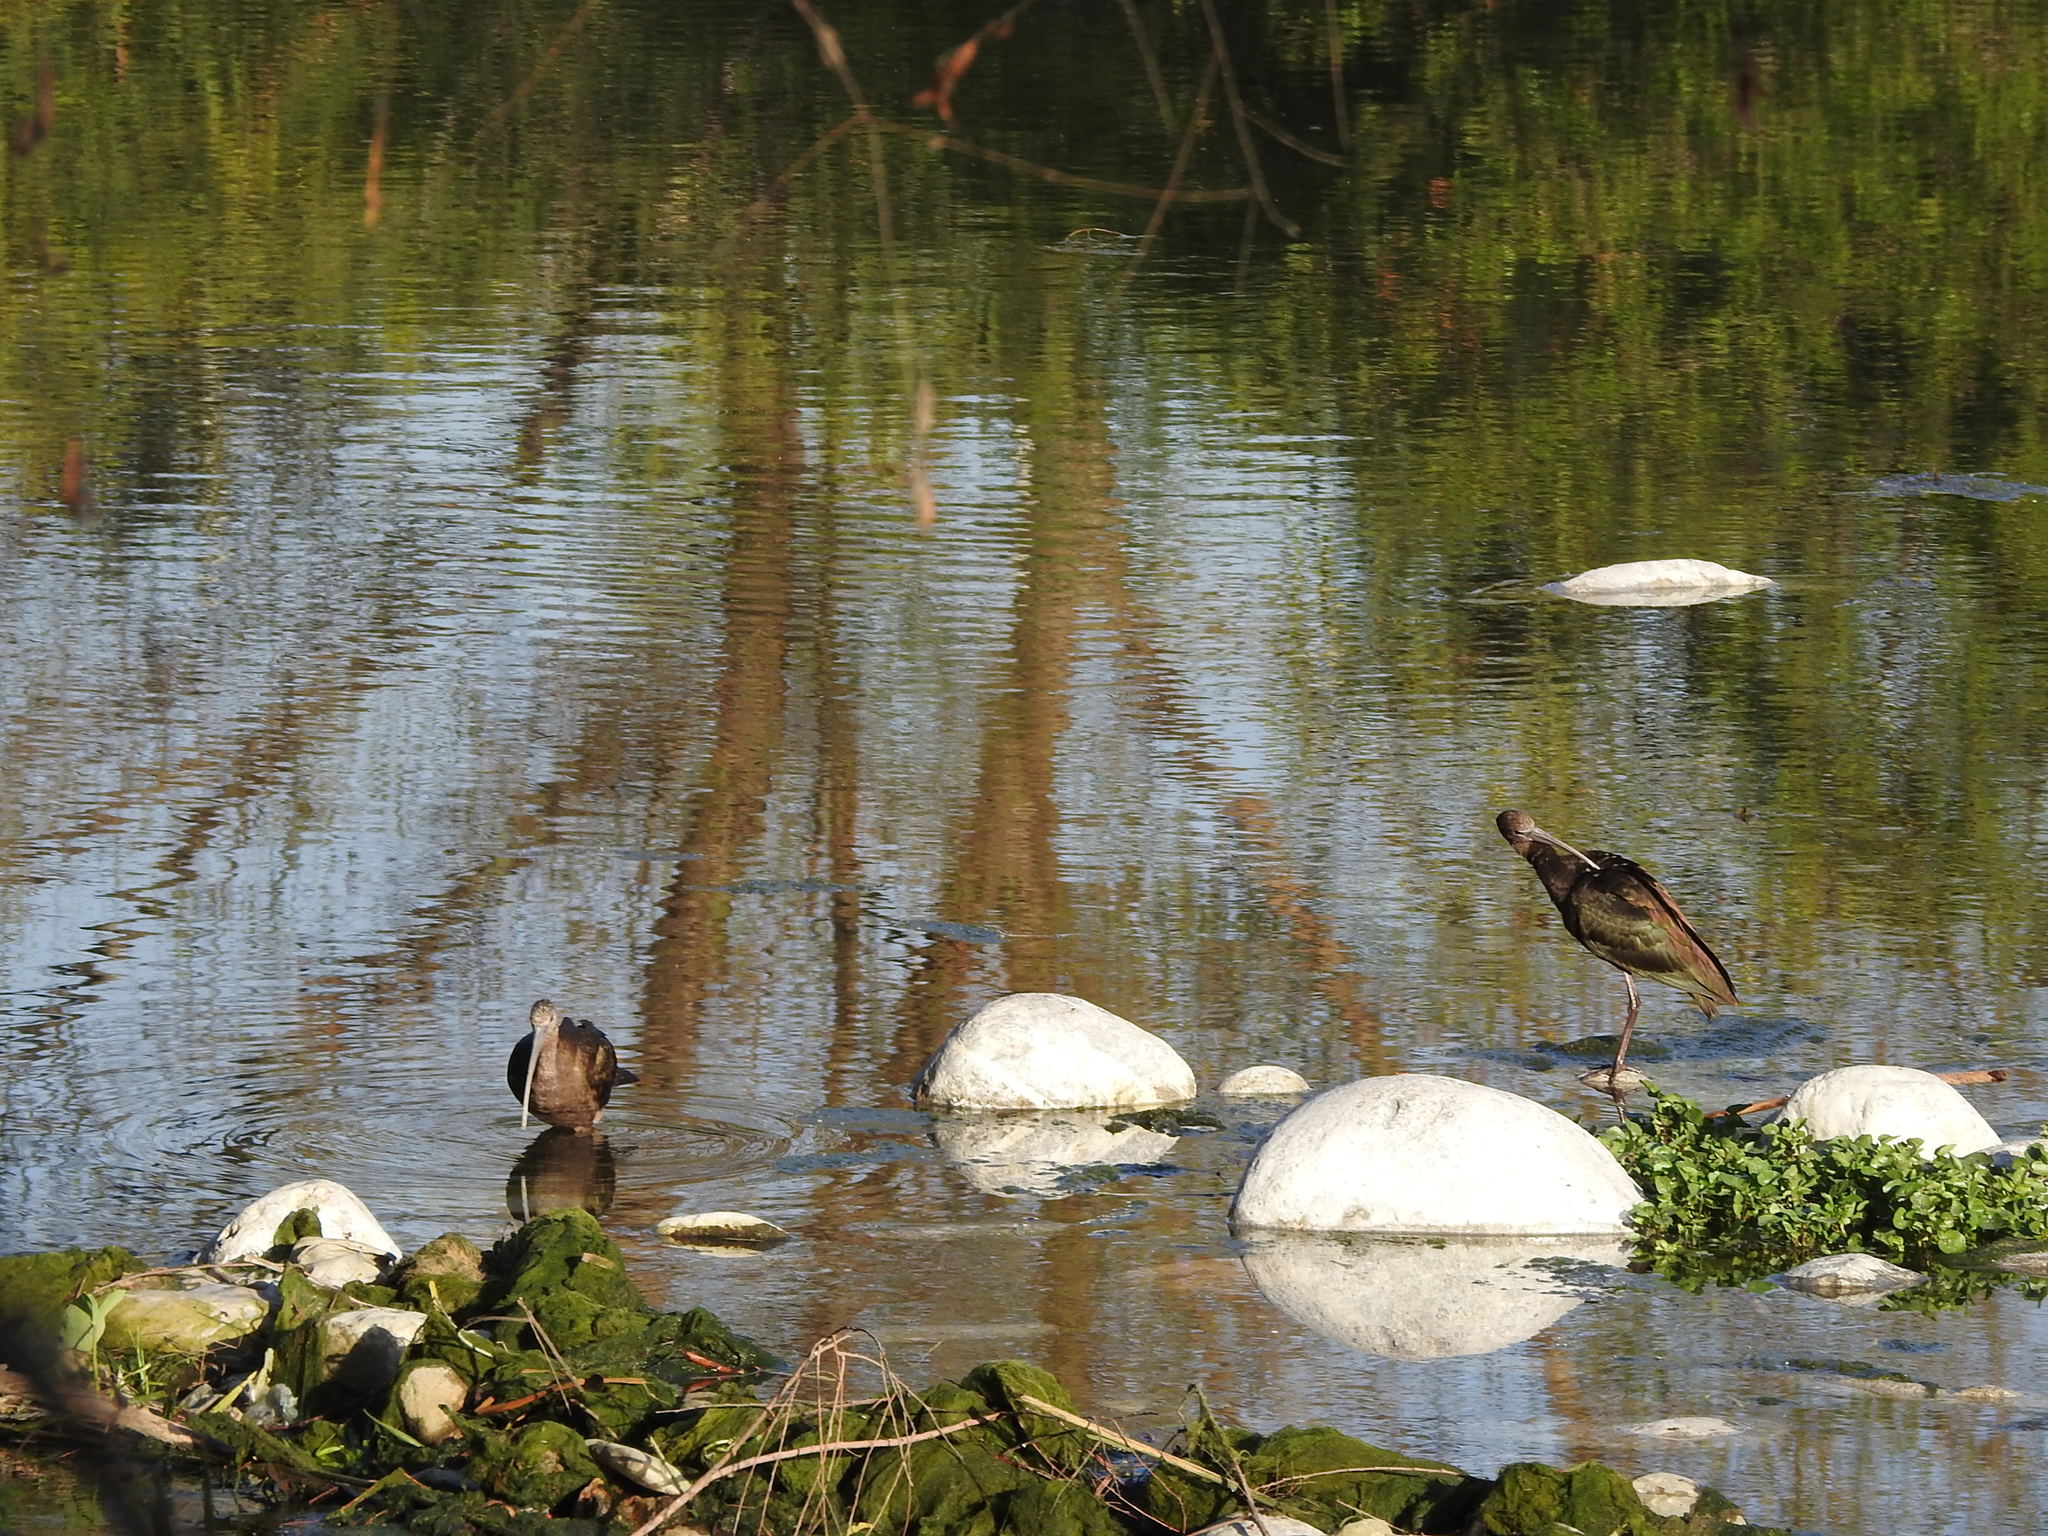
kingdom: Animalia
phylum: Chordata
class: Aves
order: Pelecaniformes
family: Threskiornithidae
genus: Plegadis
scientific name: Plegadis chihi
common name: White-faced ibis
